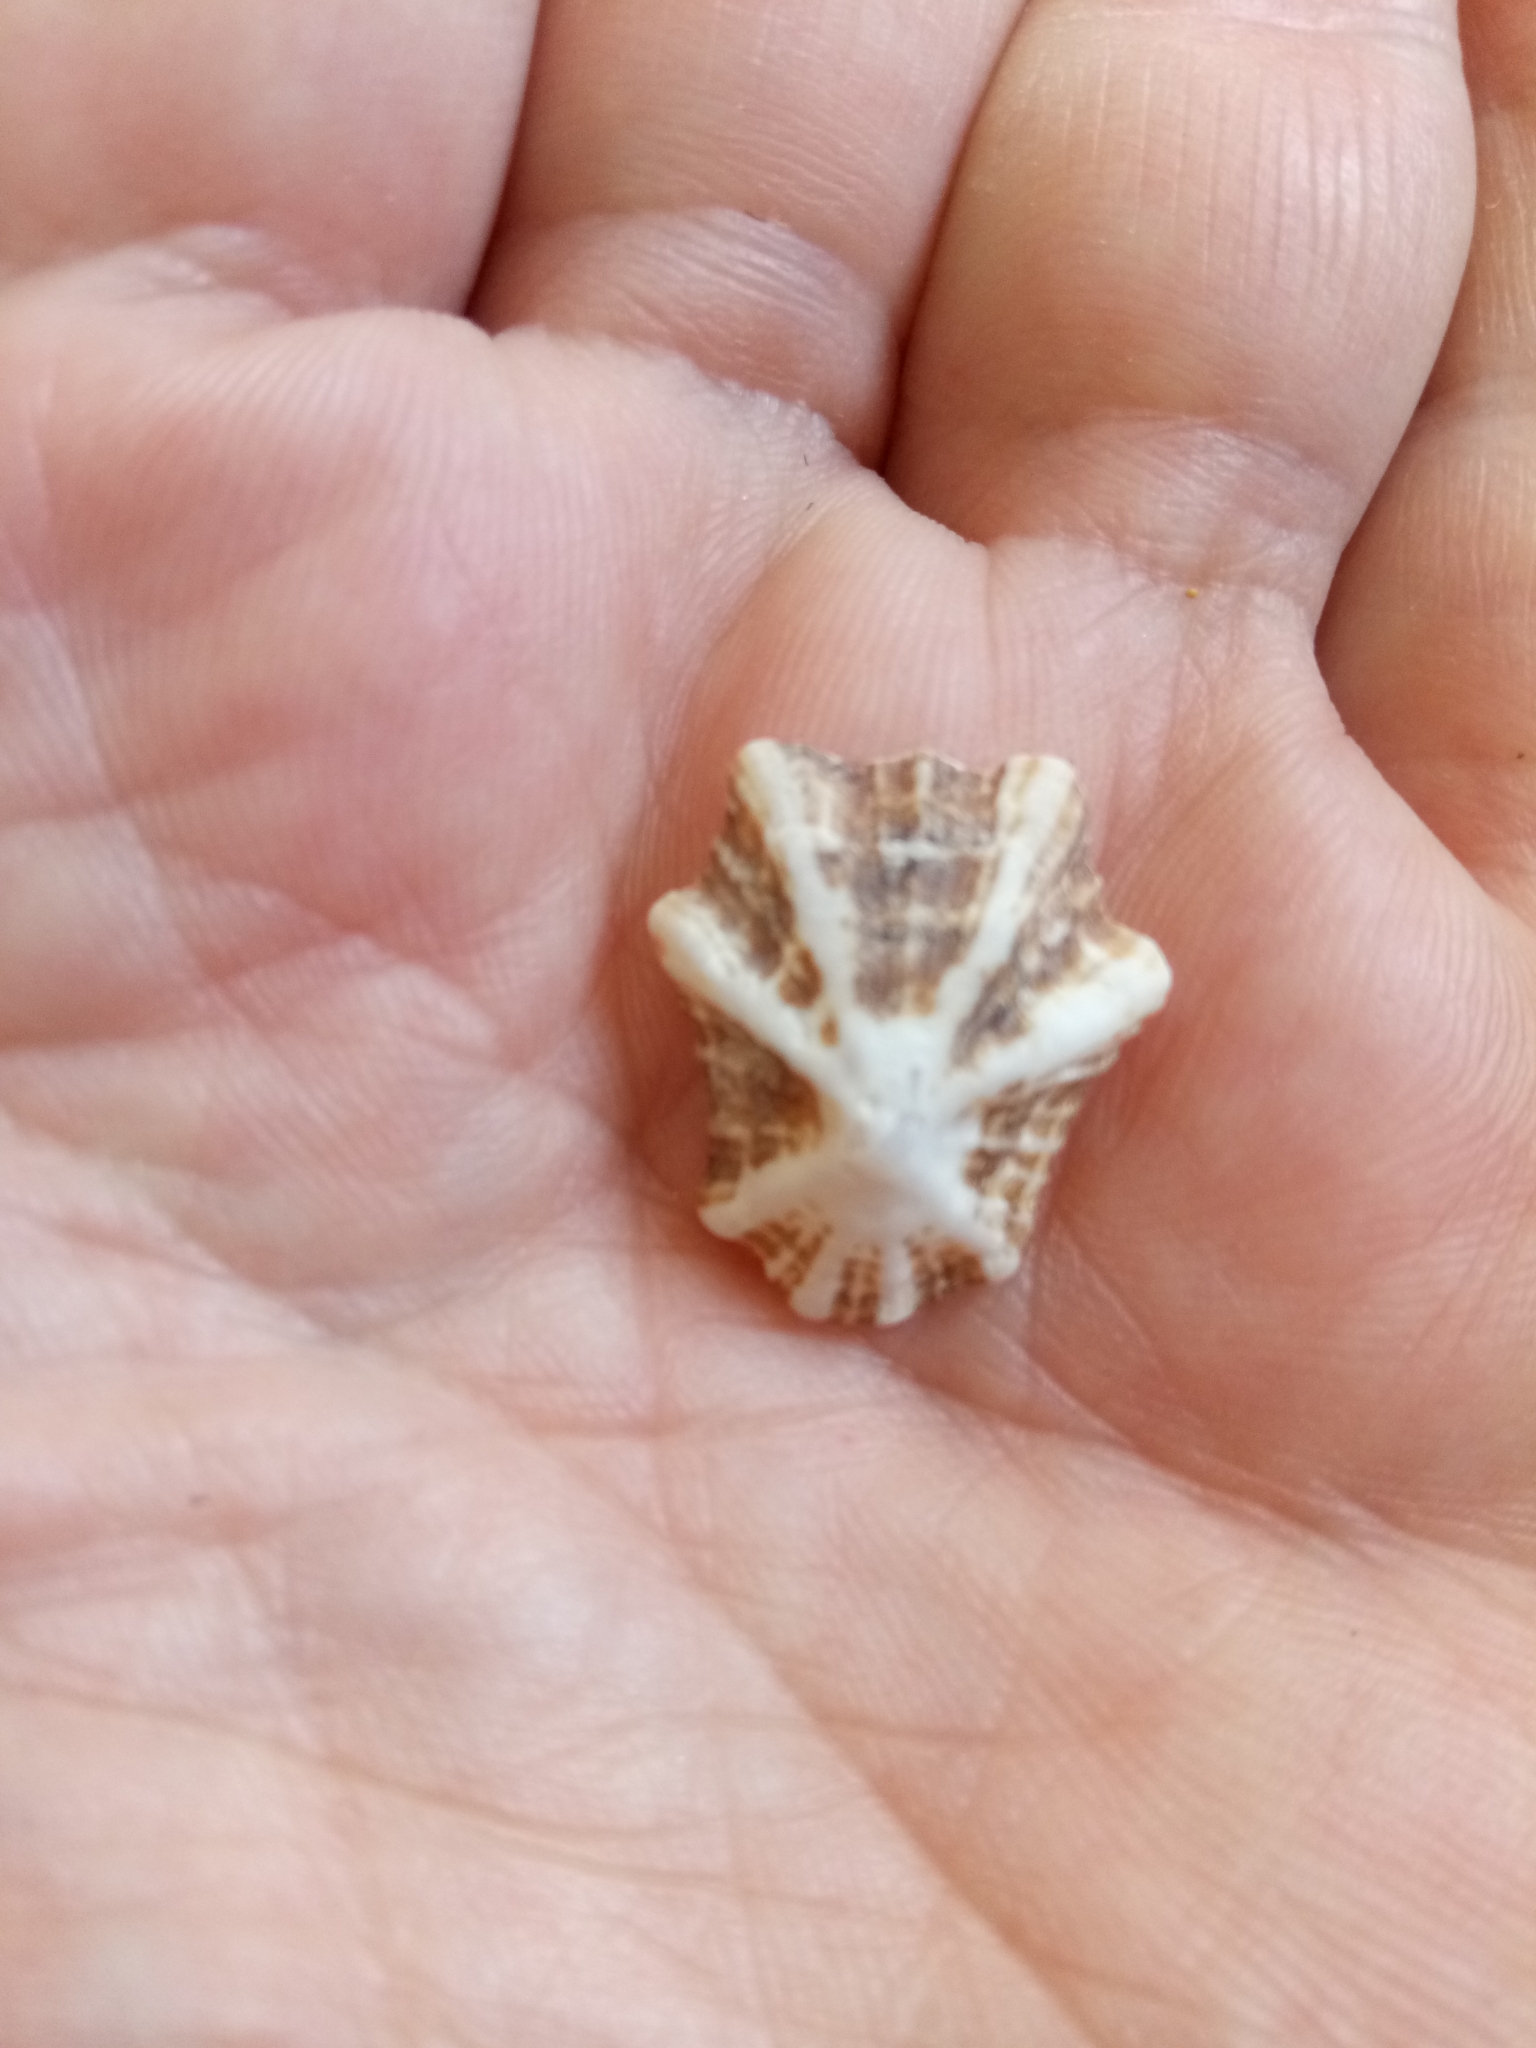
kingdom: Animalia
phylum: Mollusca
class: Gastropoda
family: Patellidae
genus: Patella
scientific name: Patella ulyssiponensis
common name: China limpet
